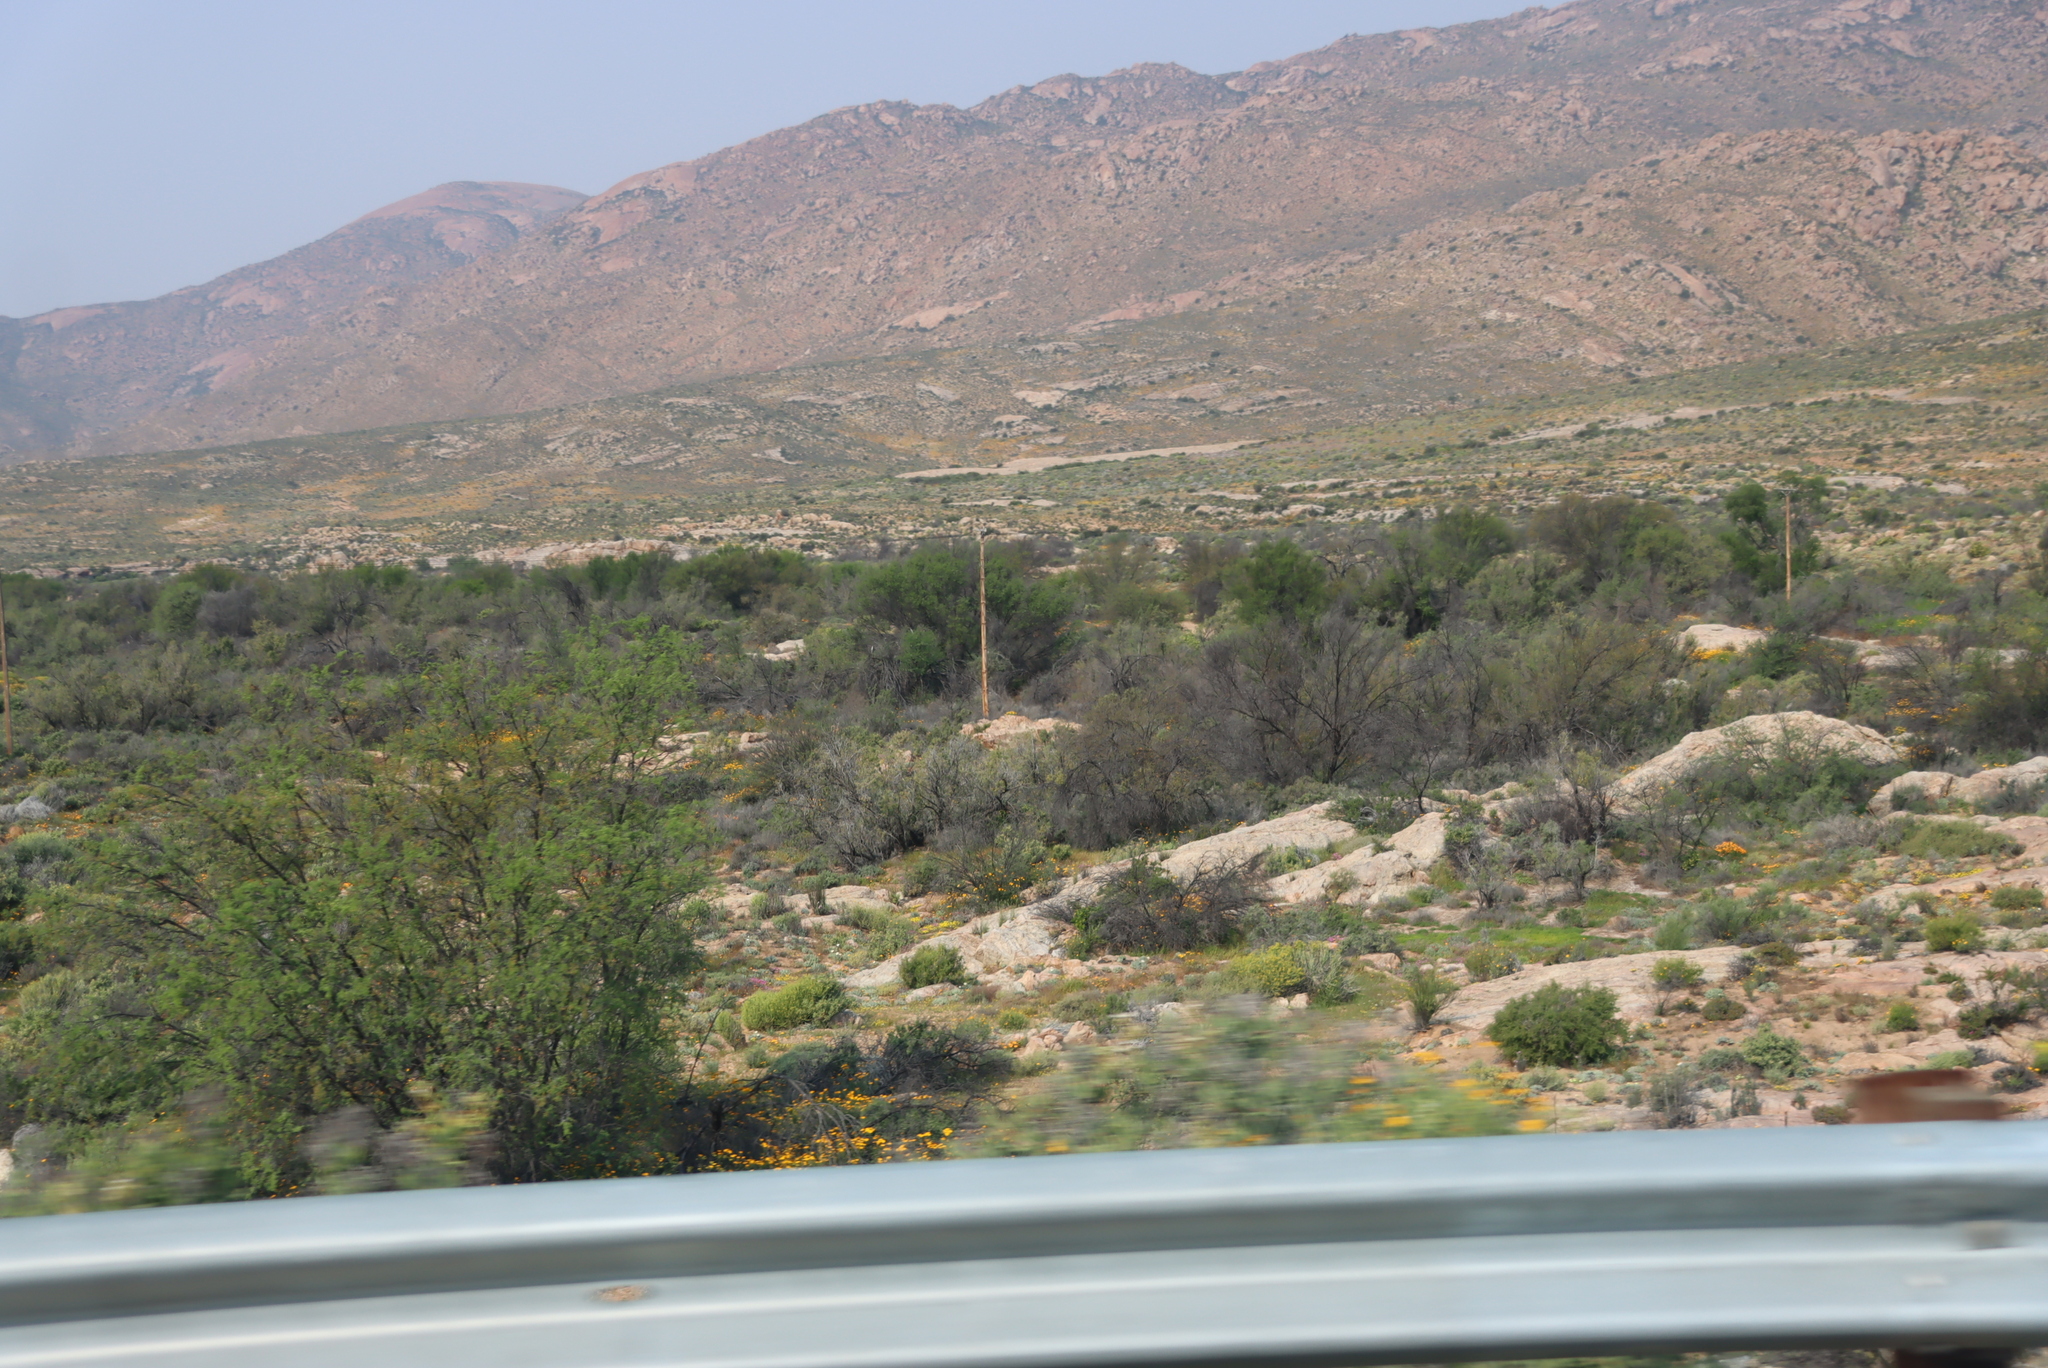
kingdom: Plantae
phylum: Tracheophyta
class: Magnoliopsida
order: Fabales
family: Fabaceae
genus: Vachellia
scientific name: Vachellia karroo
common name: Sweet thorn
